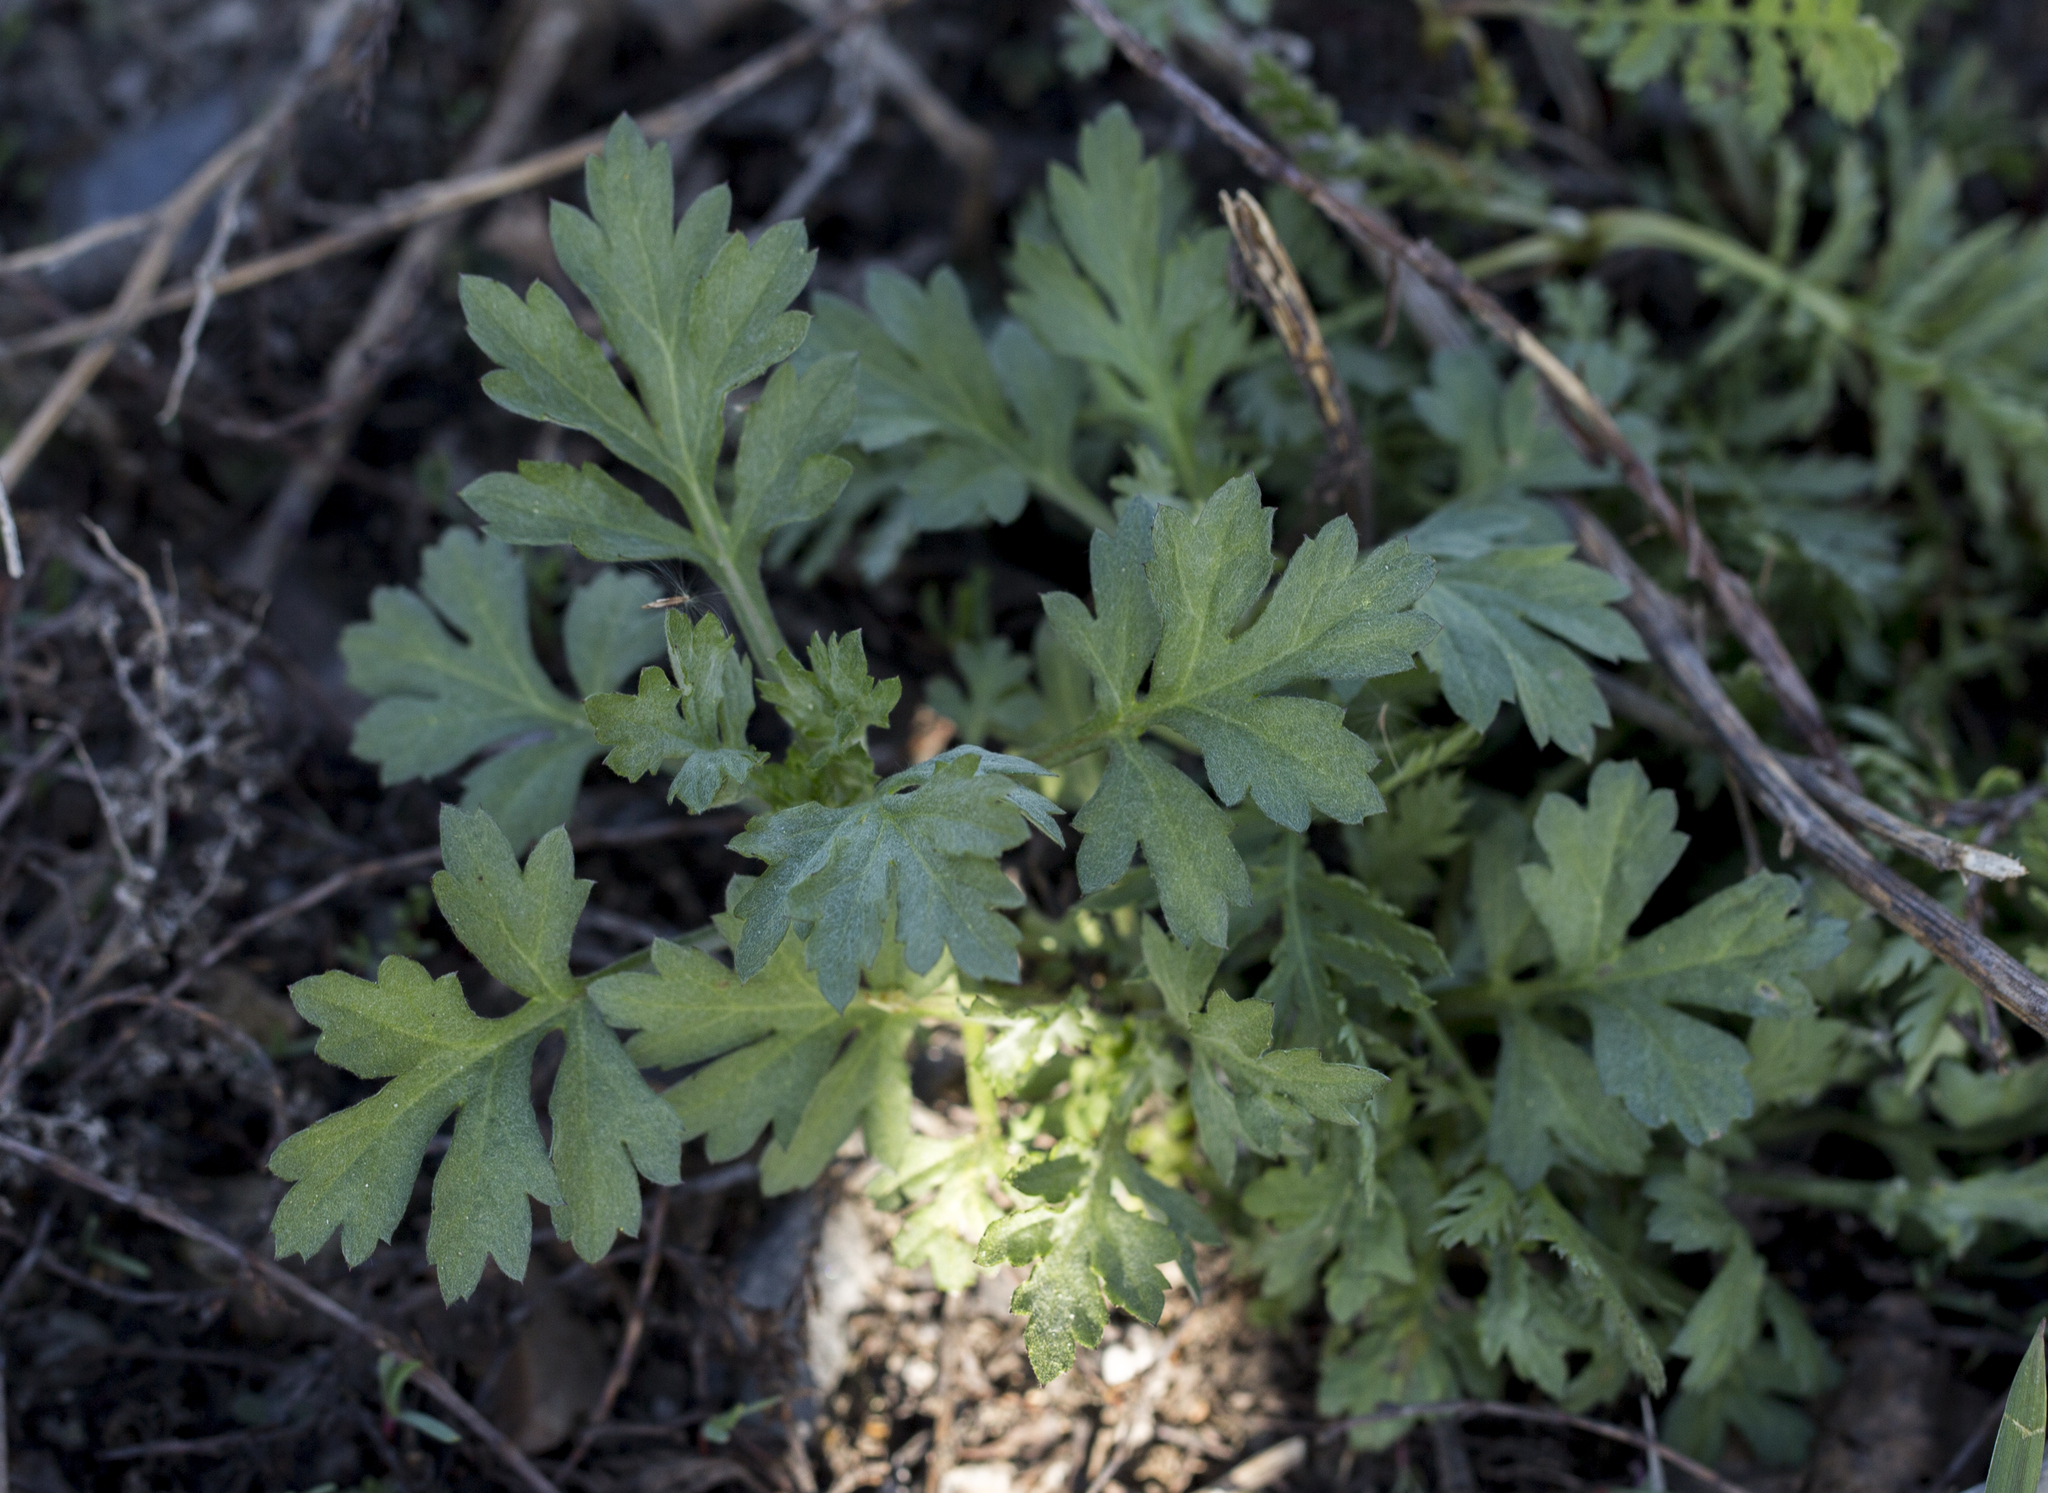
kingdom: Plantae
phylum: Tracheophyta
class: Magnoliopsida
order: Asterales
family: Asteraceae
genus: Artemisia
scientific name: Artemisia vulgaris
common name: Mugwort
